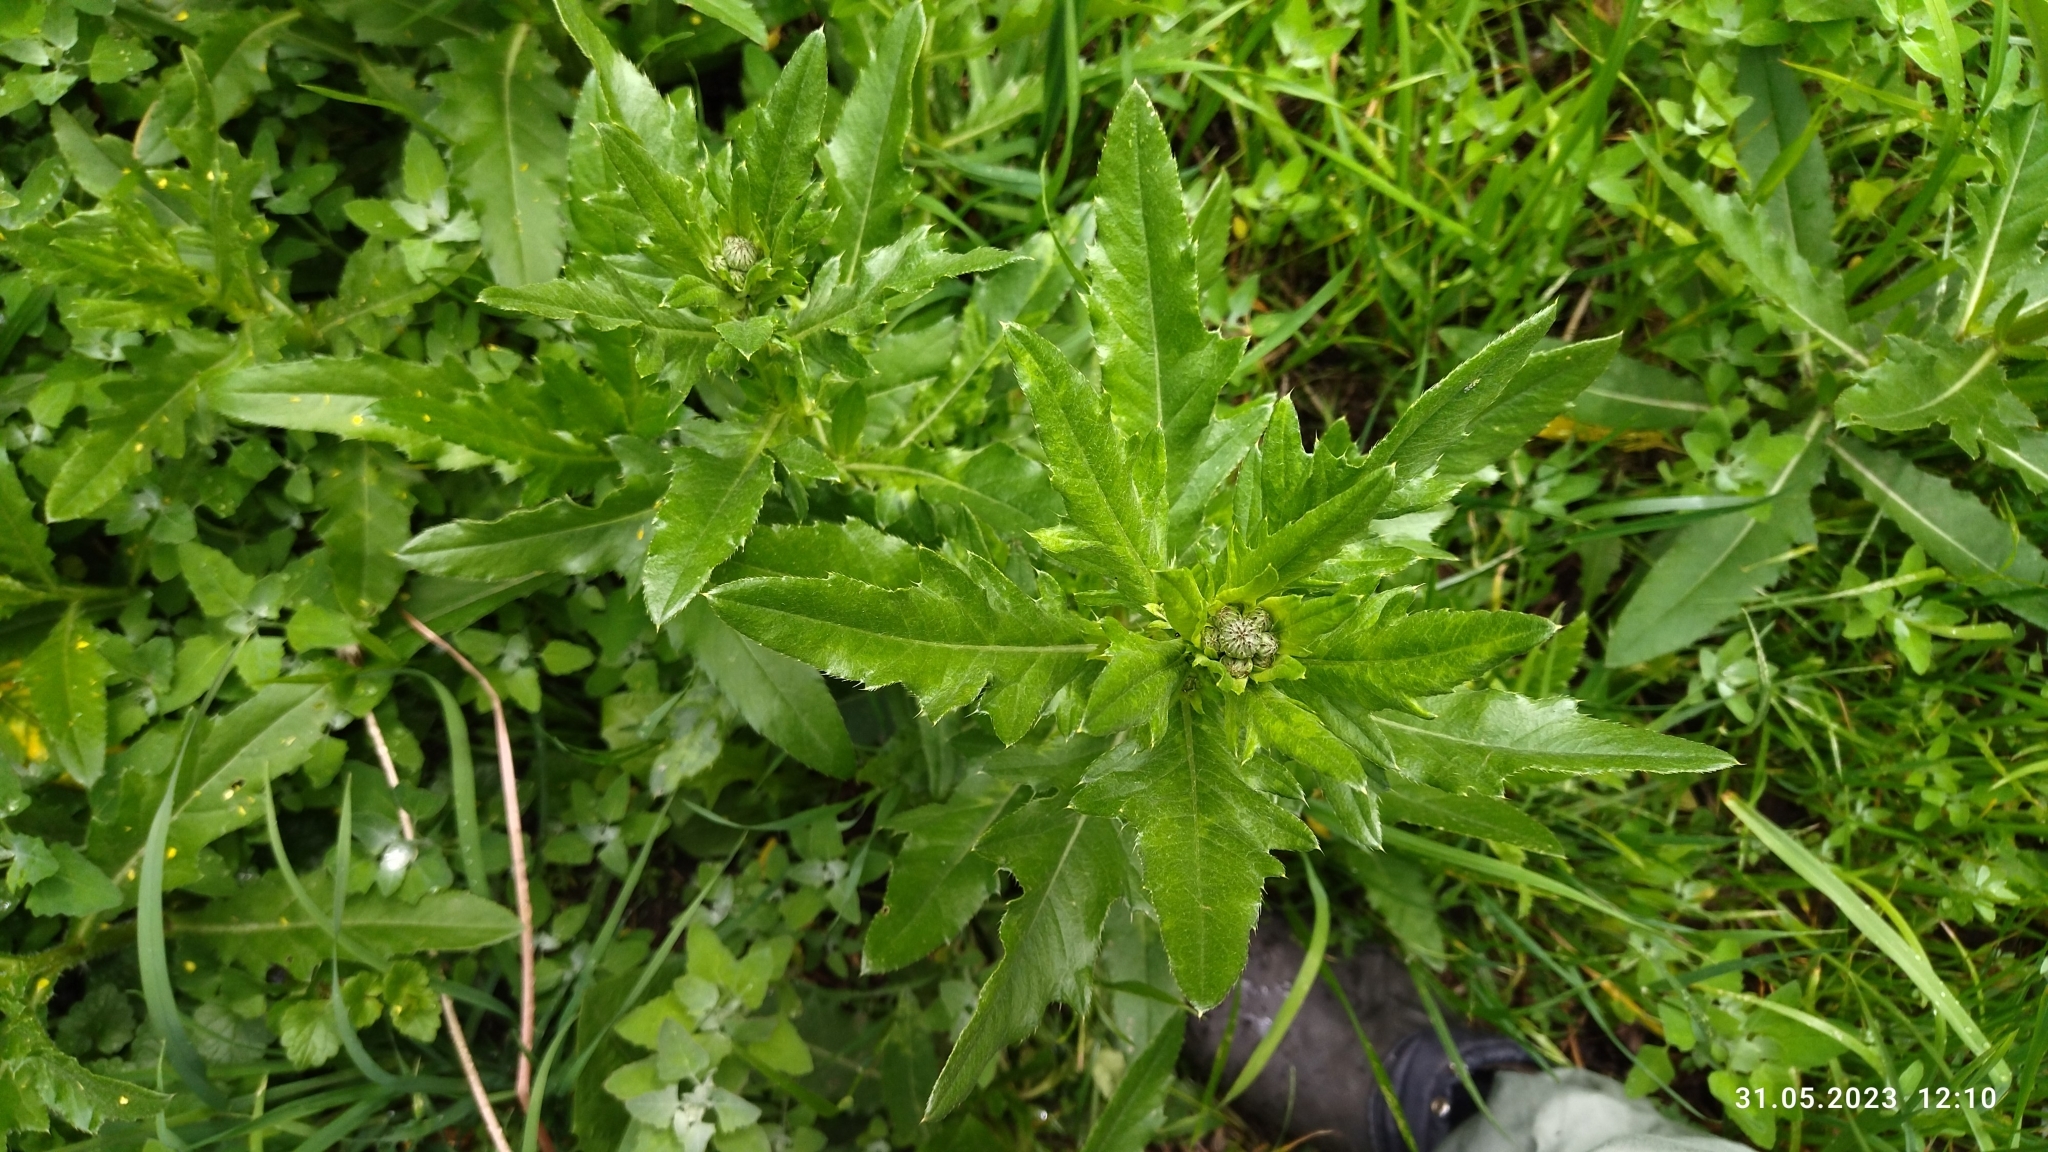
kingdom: Plantae
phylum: Tracheophyta
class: Magnoliopsida
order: Asterales
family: Asteraceae
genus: Cirsium
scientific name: Cirsium arvense
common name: Creeping thistle
